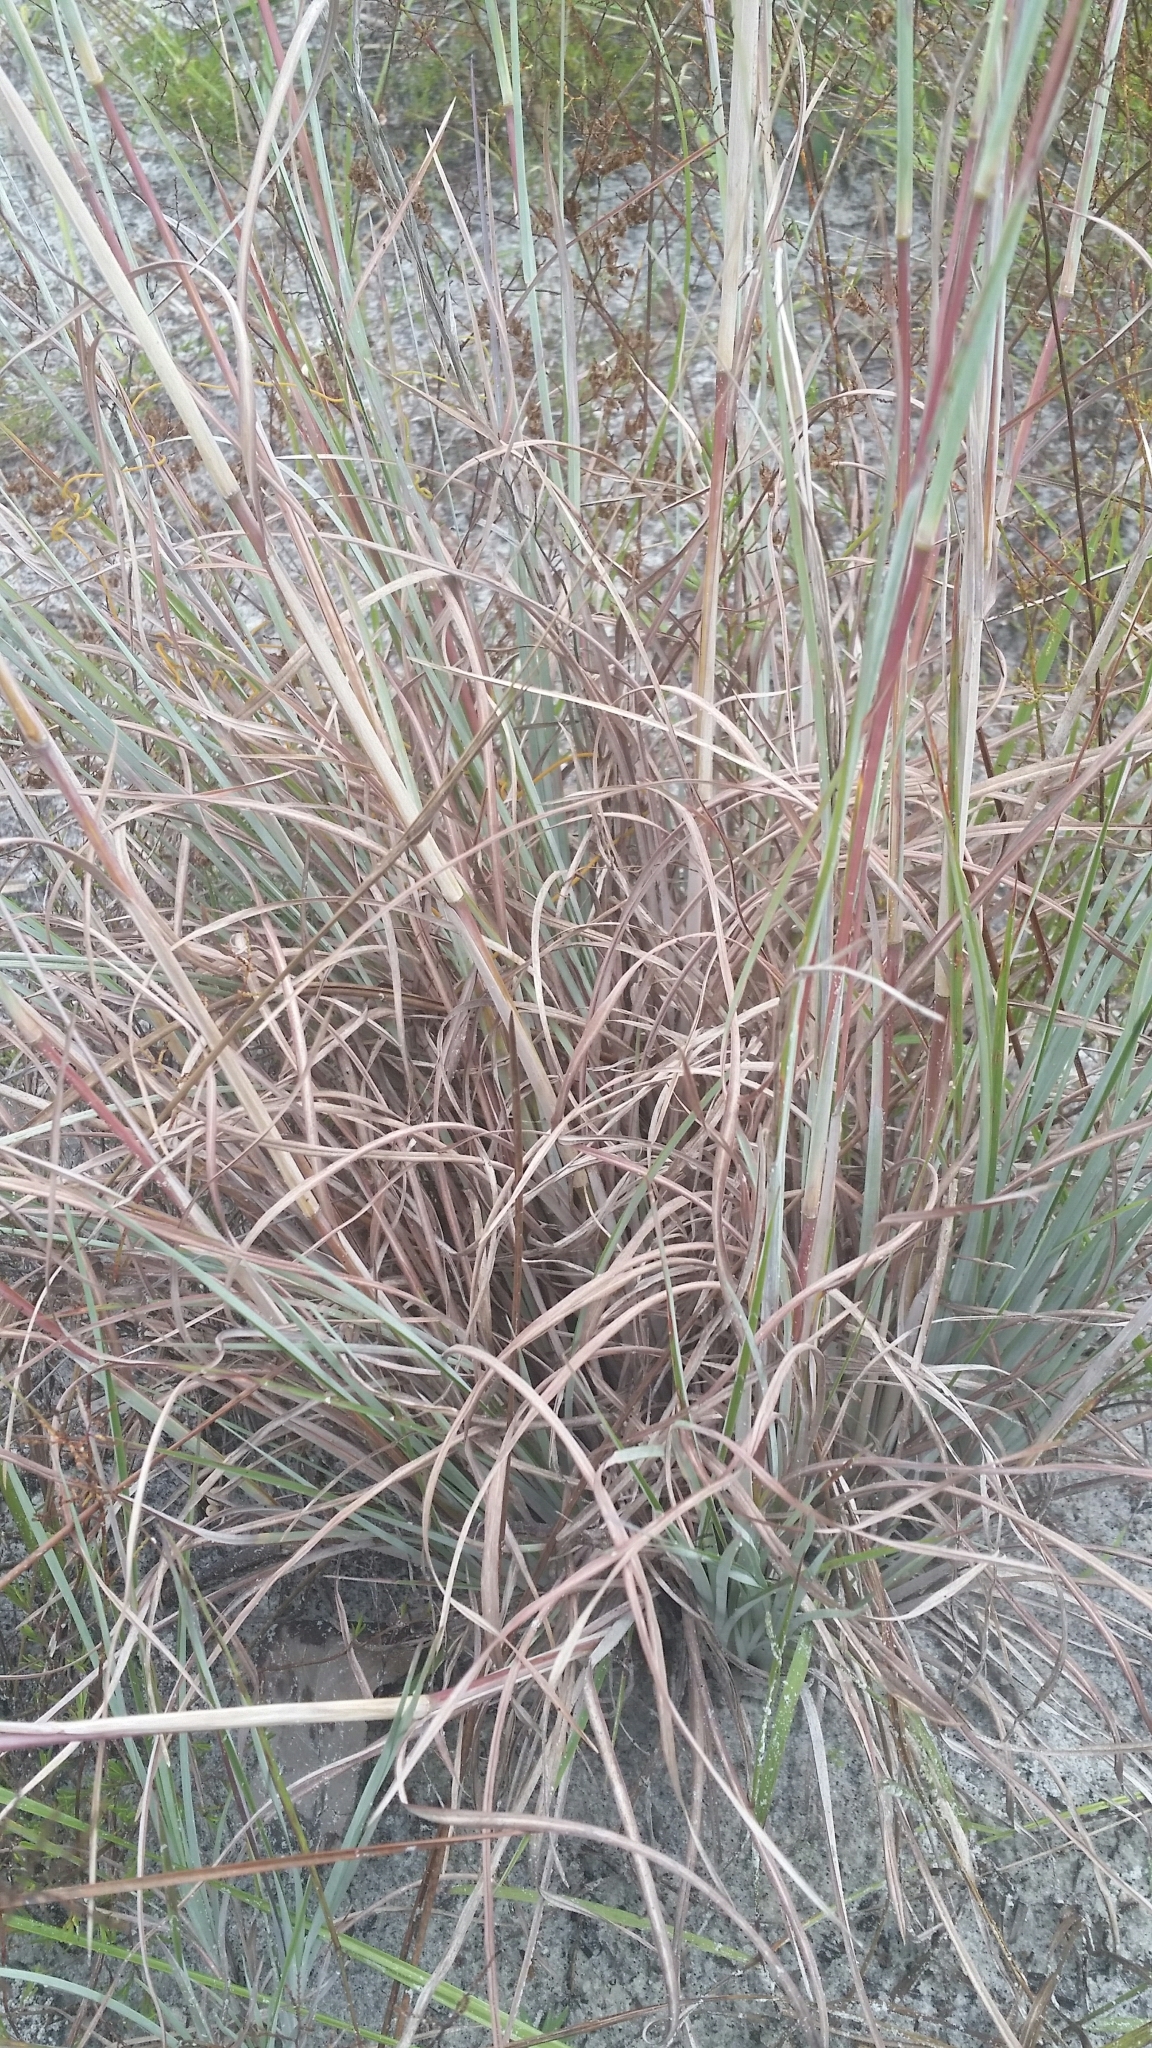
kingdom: Plantae
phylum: Tracheophyta
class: Liliopsida
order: Poales
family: Poaceae
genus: Andropogon
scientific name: Andropogon capillipes
